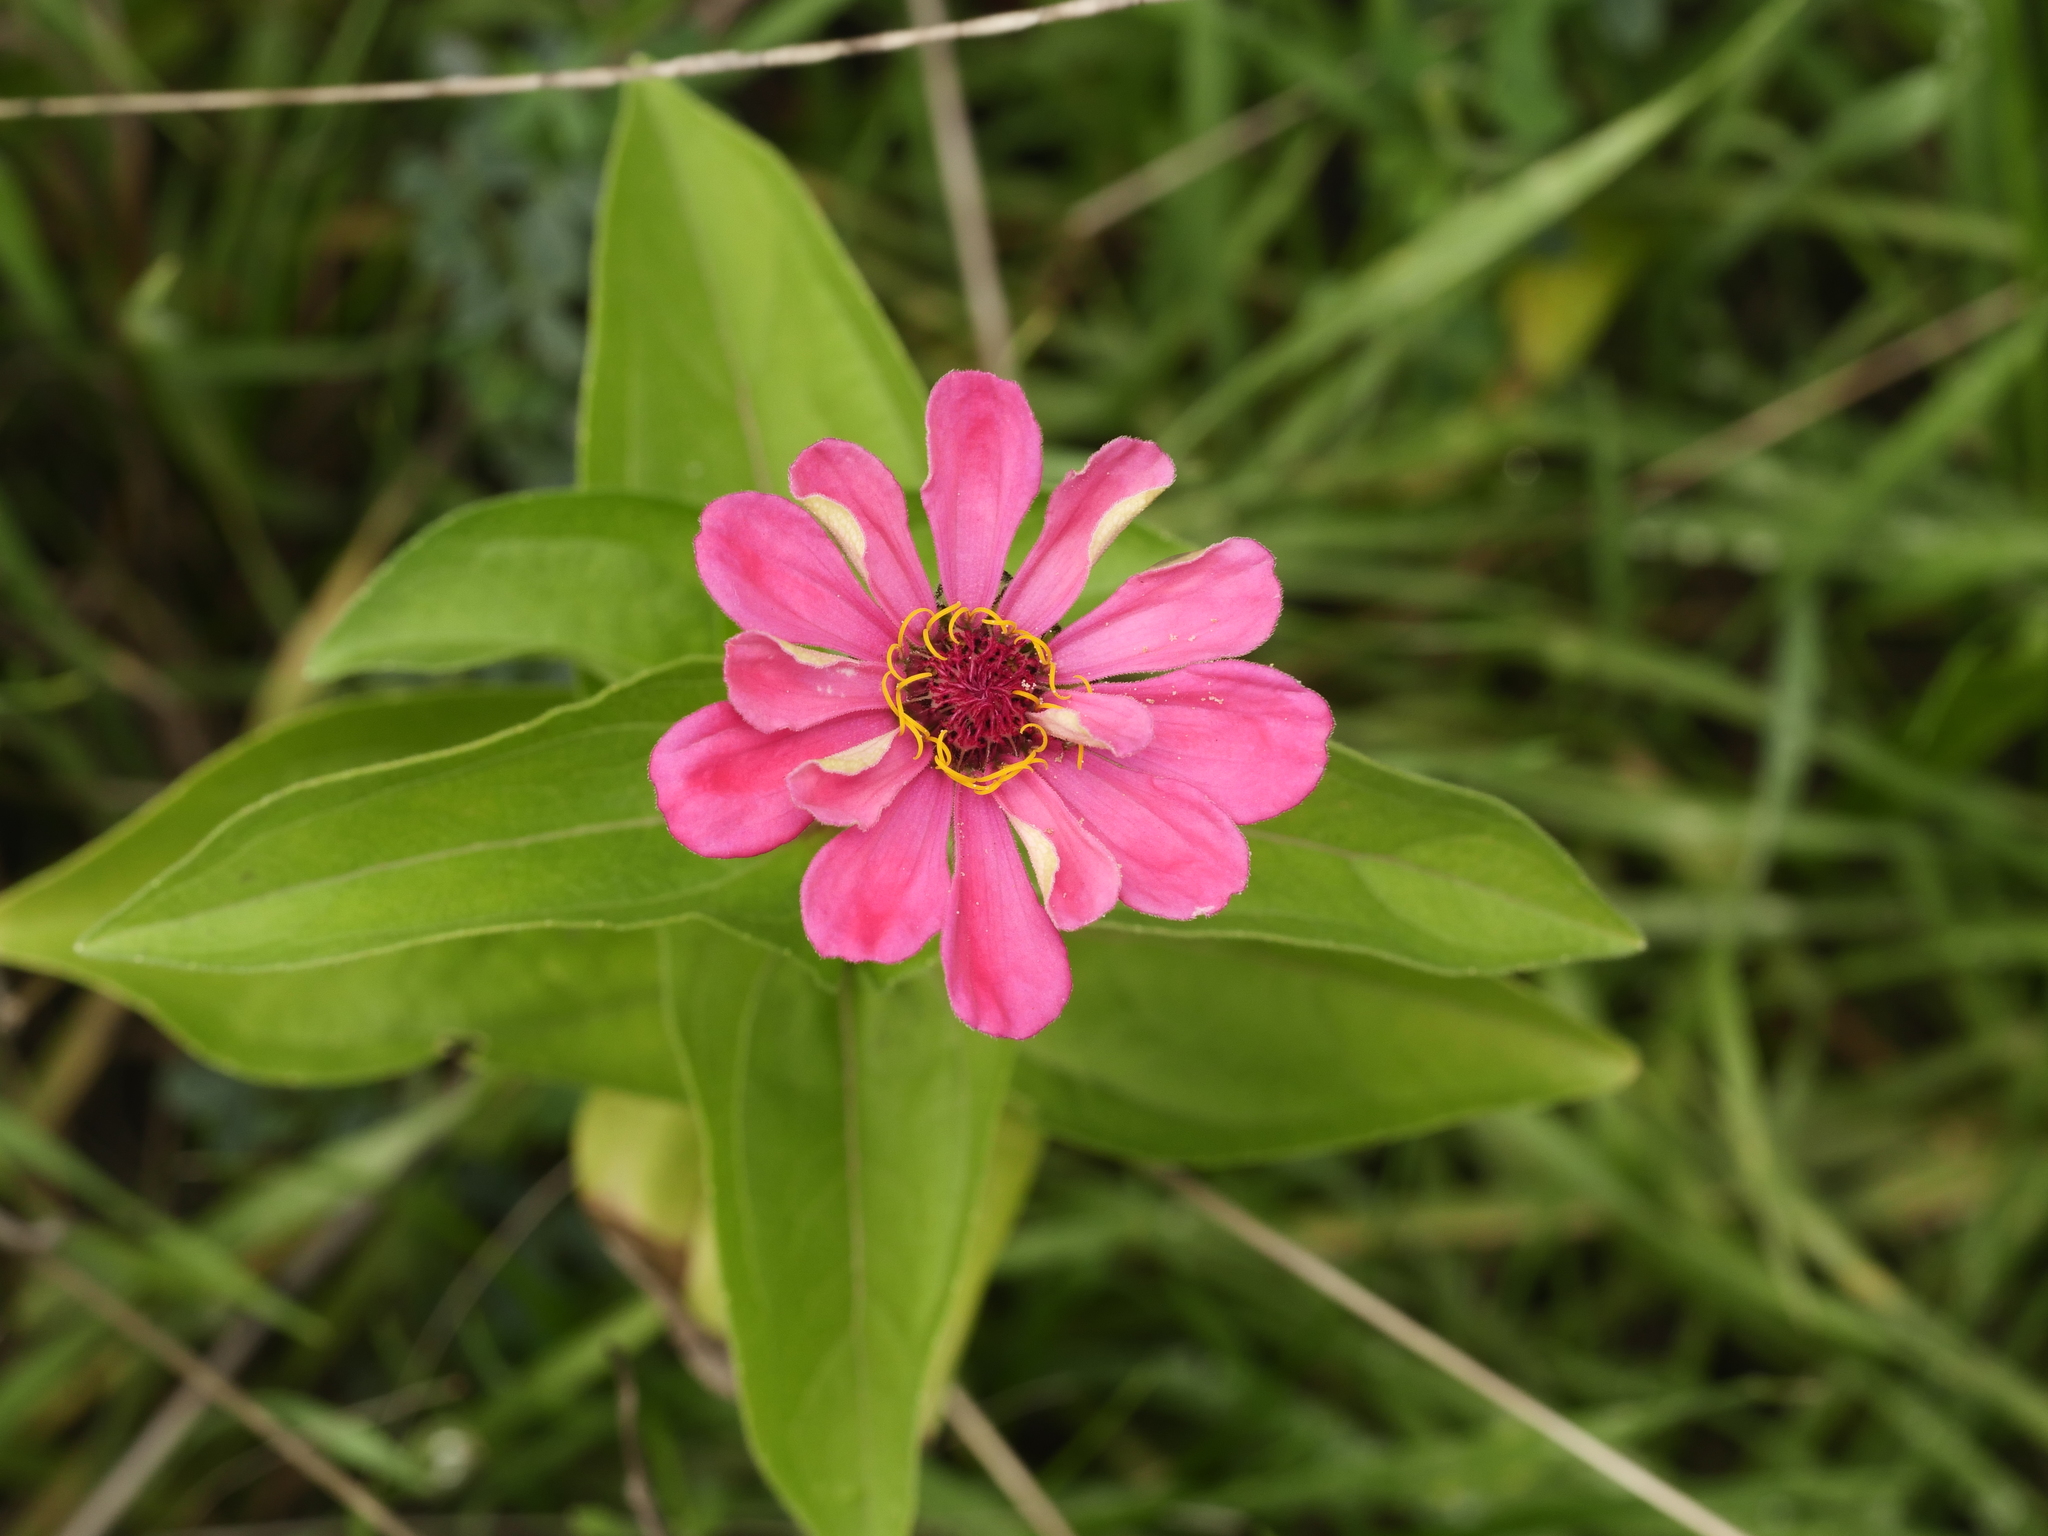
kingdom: Plantae
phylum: Tracheophyta
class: Magnoliopsida
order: Asterales
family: Asteraceae
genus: Zinnia
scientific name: Zinnia elegans
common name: Youth-and-age
